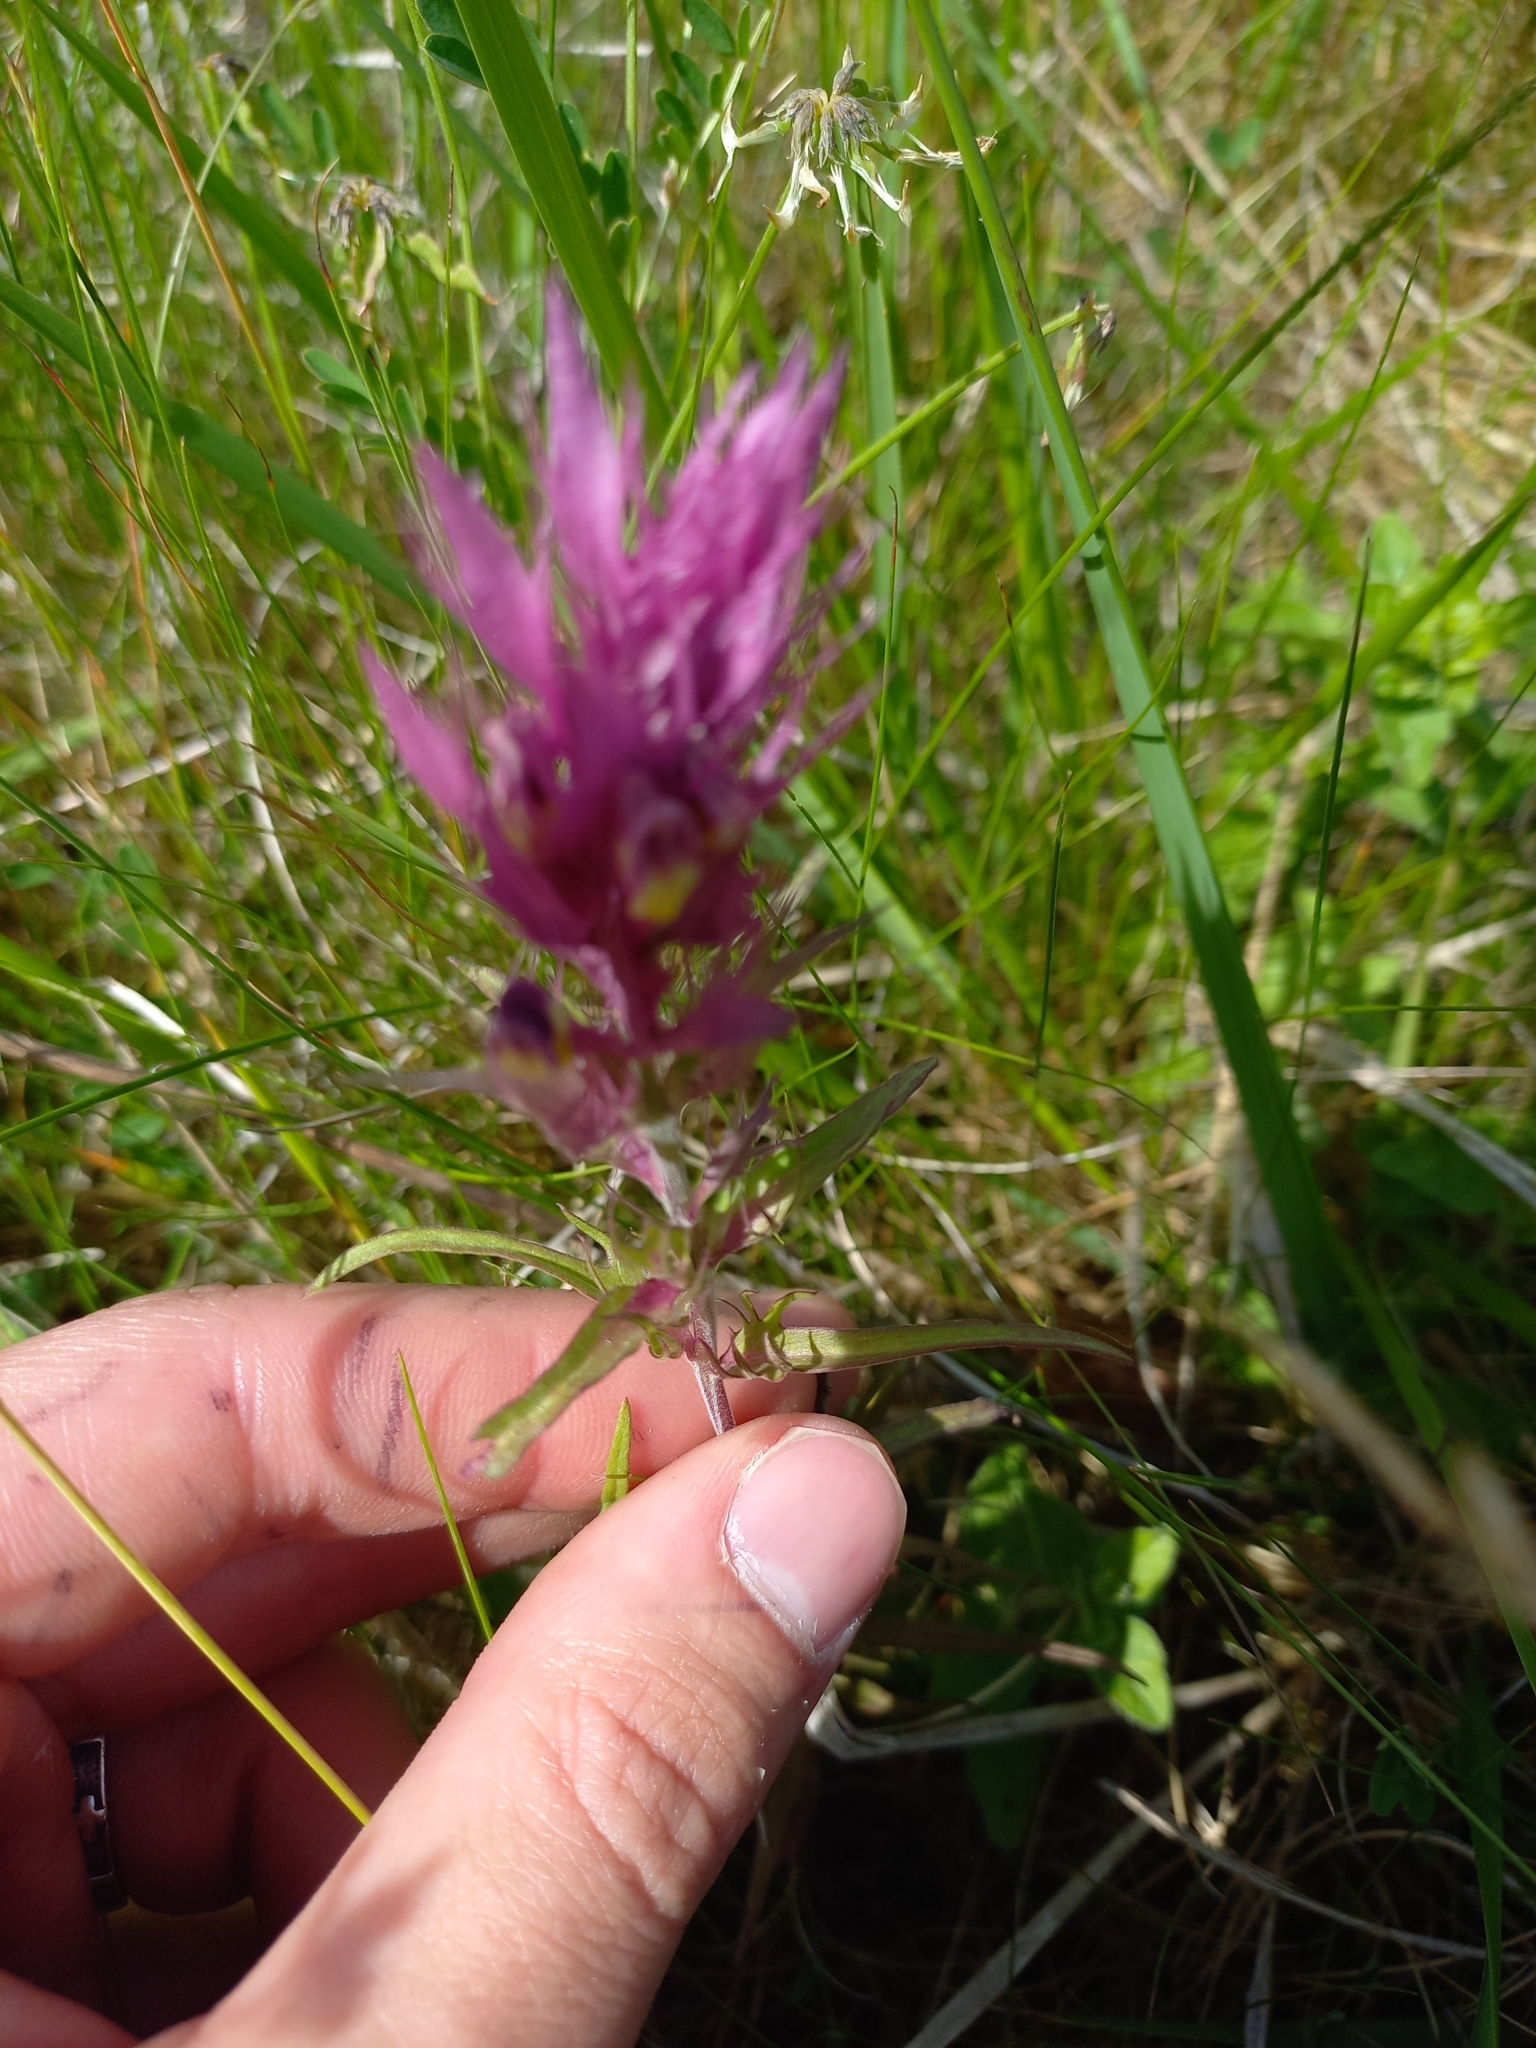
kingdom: Plantae
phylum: Tracheophyta
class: Magnoliopsida
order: Lamiales
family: Orobanchaceae
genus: Melampyrum
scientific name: Melampyrum arvense
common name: Field cow-wheat
